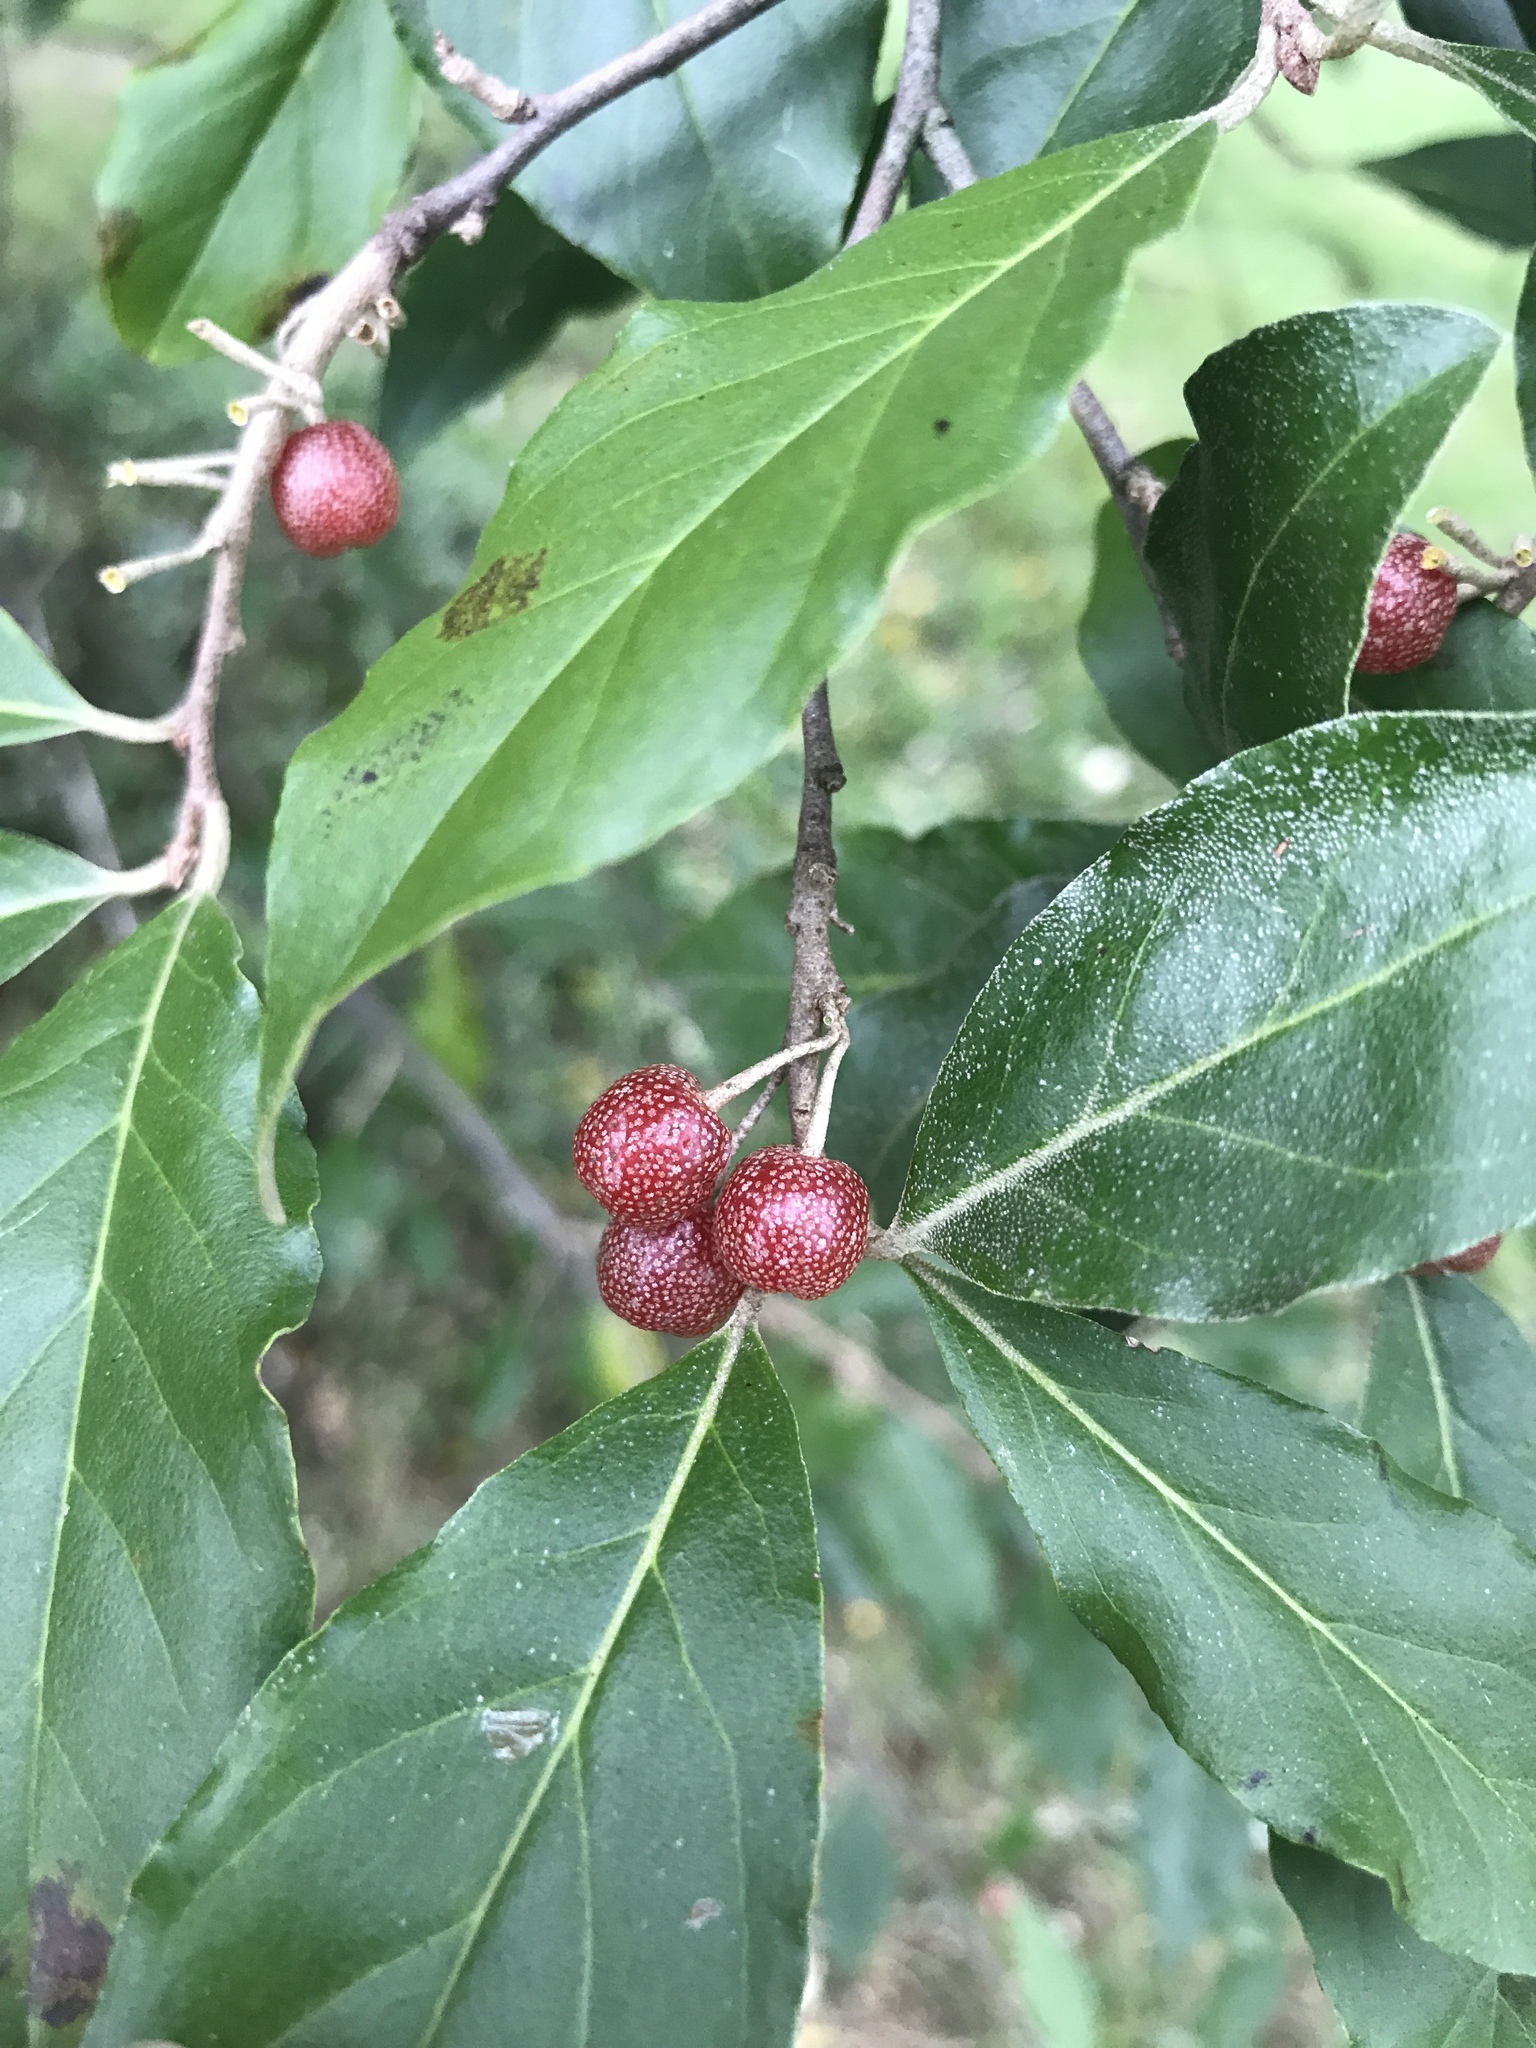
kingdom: Plantae
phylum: Tracheophyta
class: Magnoliopsida
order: Rosales
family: Elaeagnaceae
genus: Elaeagnus
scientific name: Elaeagnus umbellata
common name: Autumn olive
